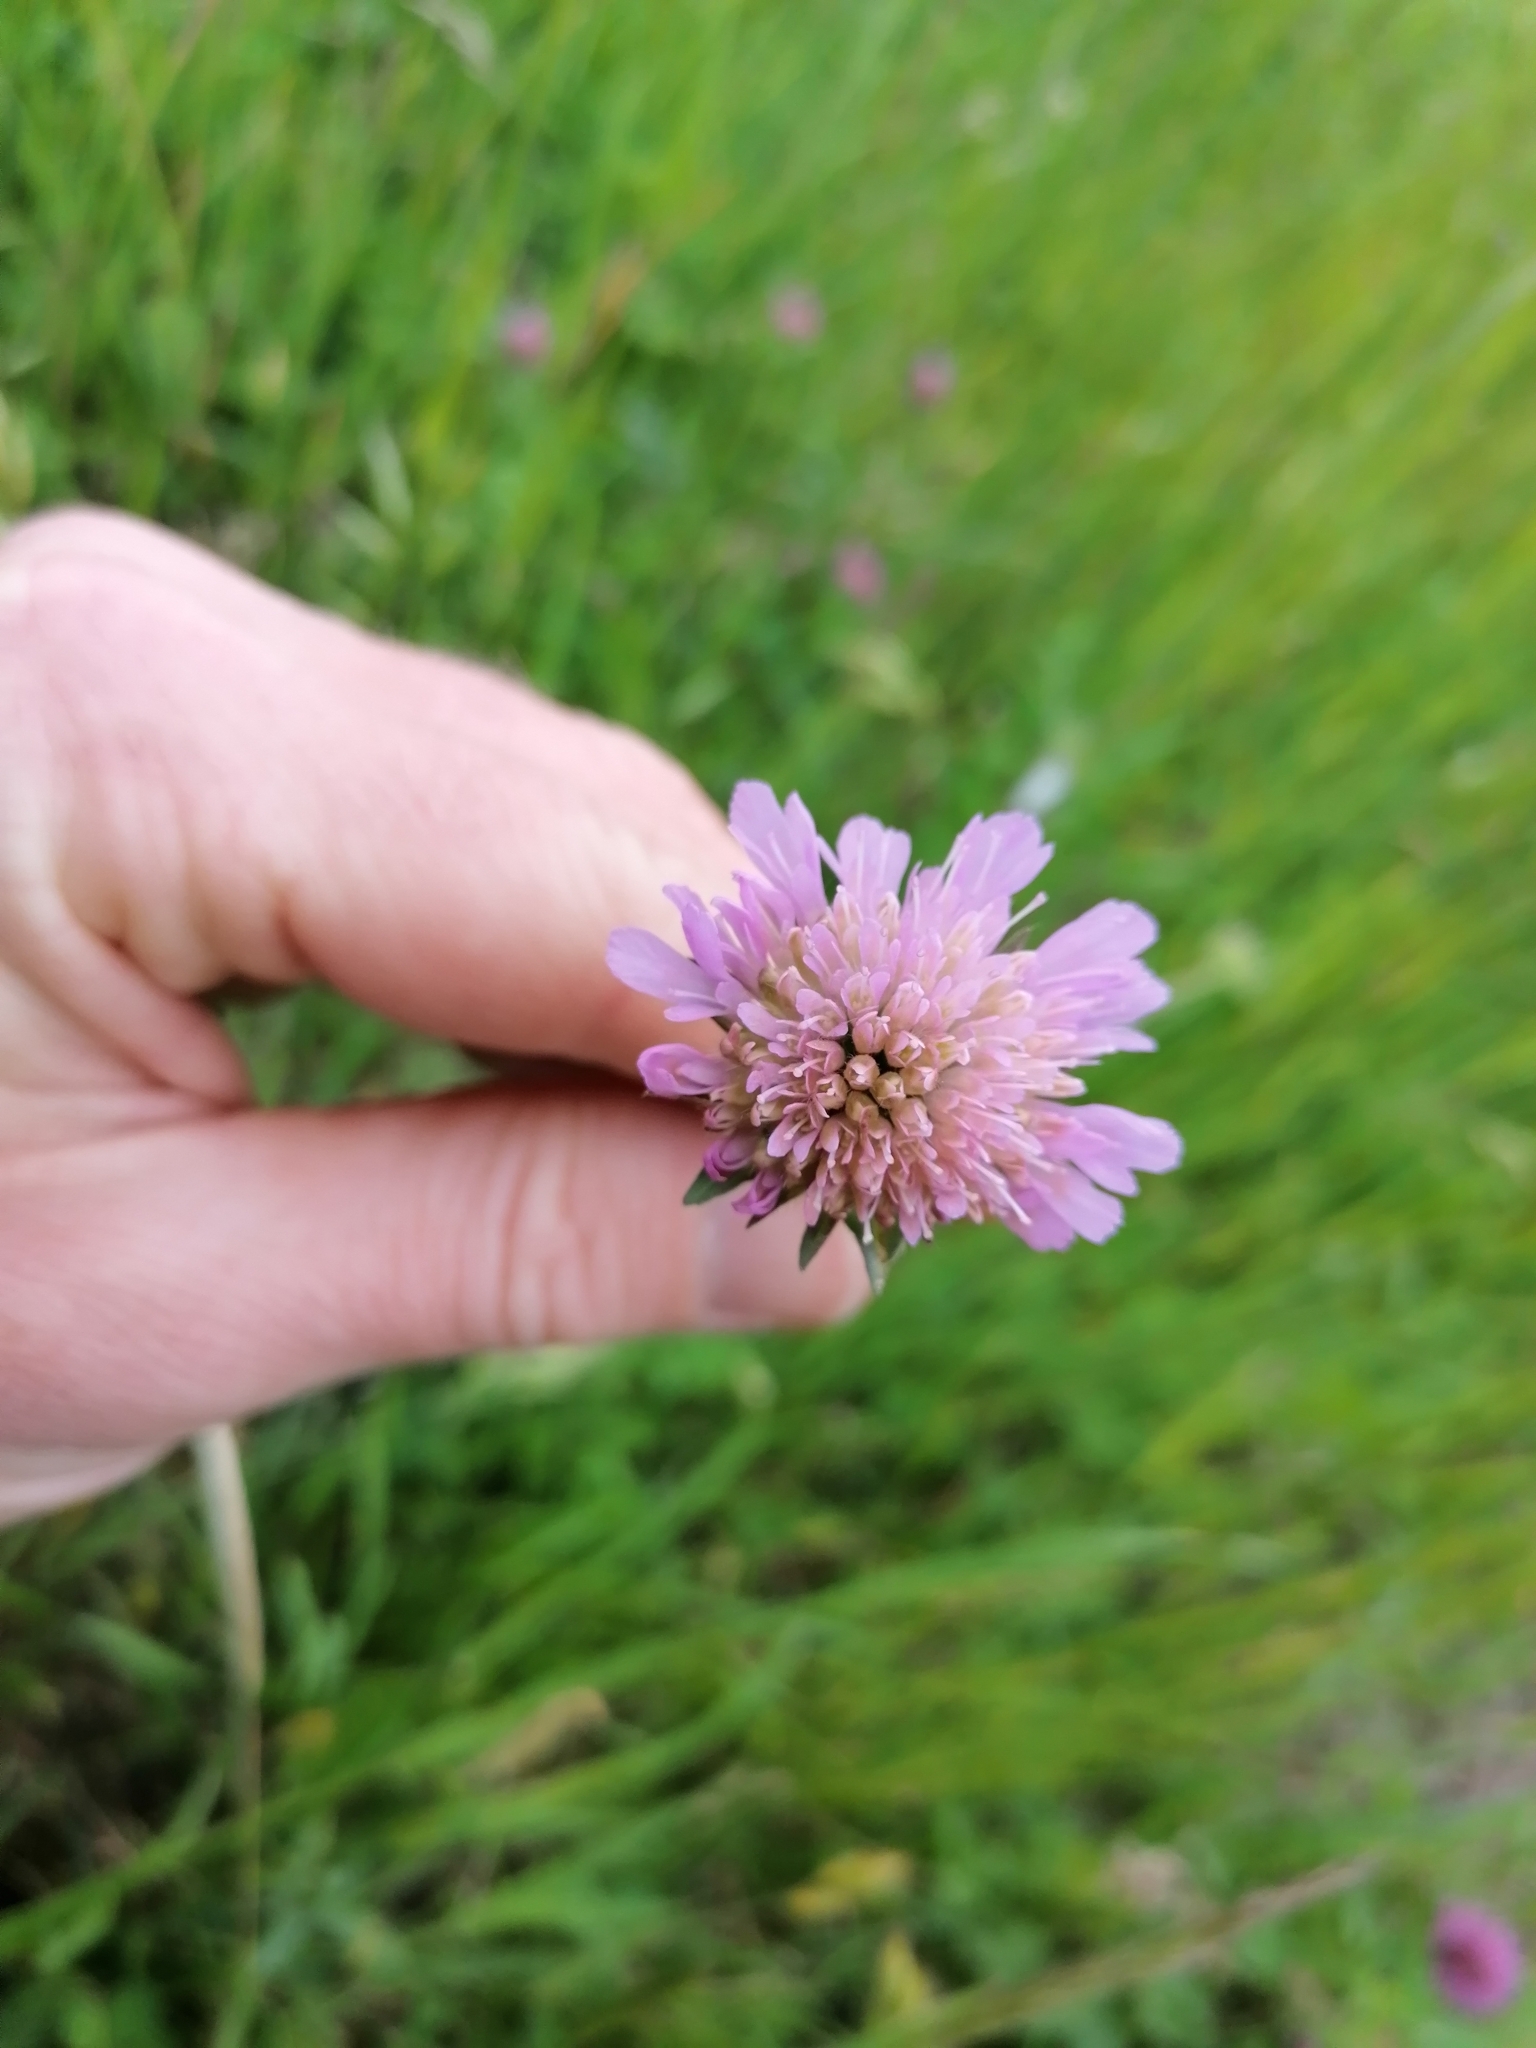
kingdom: Plantae
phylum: Tracheophyta
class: Magnoliopsida
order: Dipsacales
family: Caprifoliaceae
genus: Knautia
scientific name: Knautia arvensis
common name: Field scabiosa
